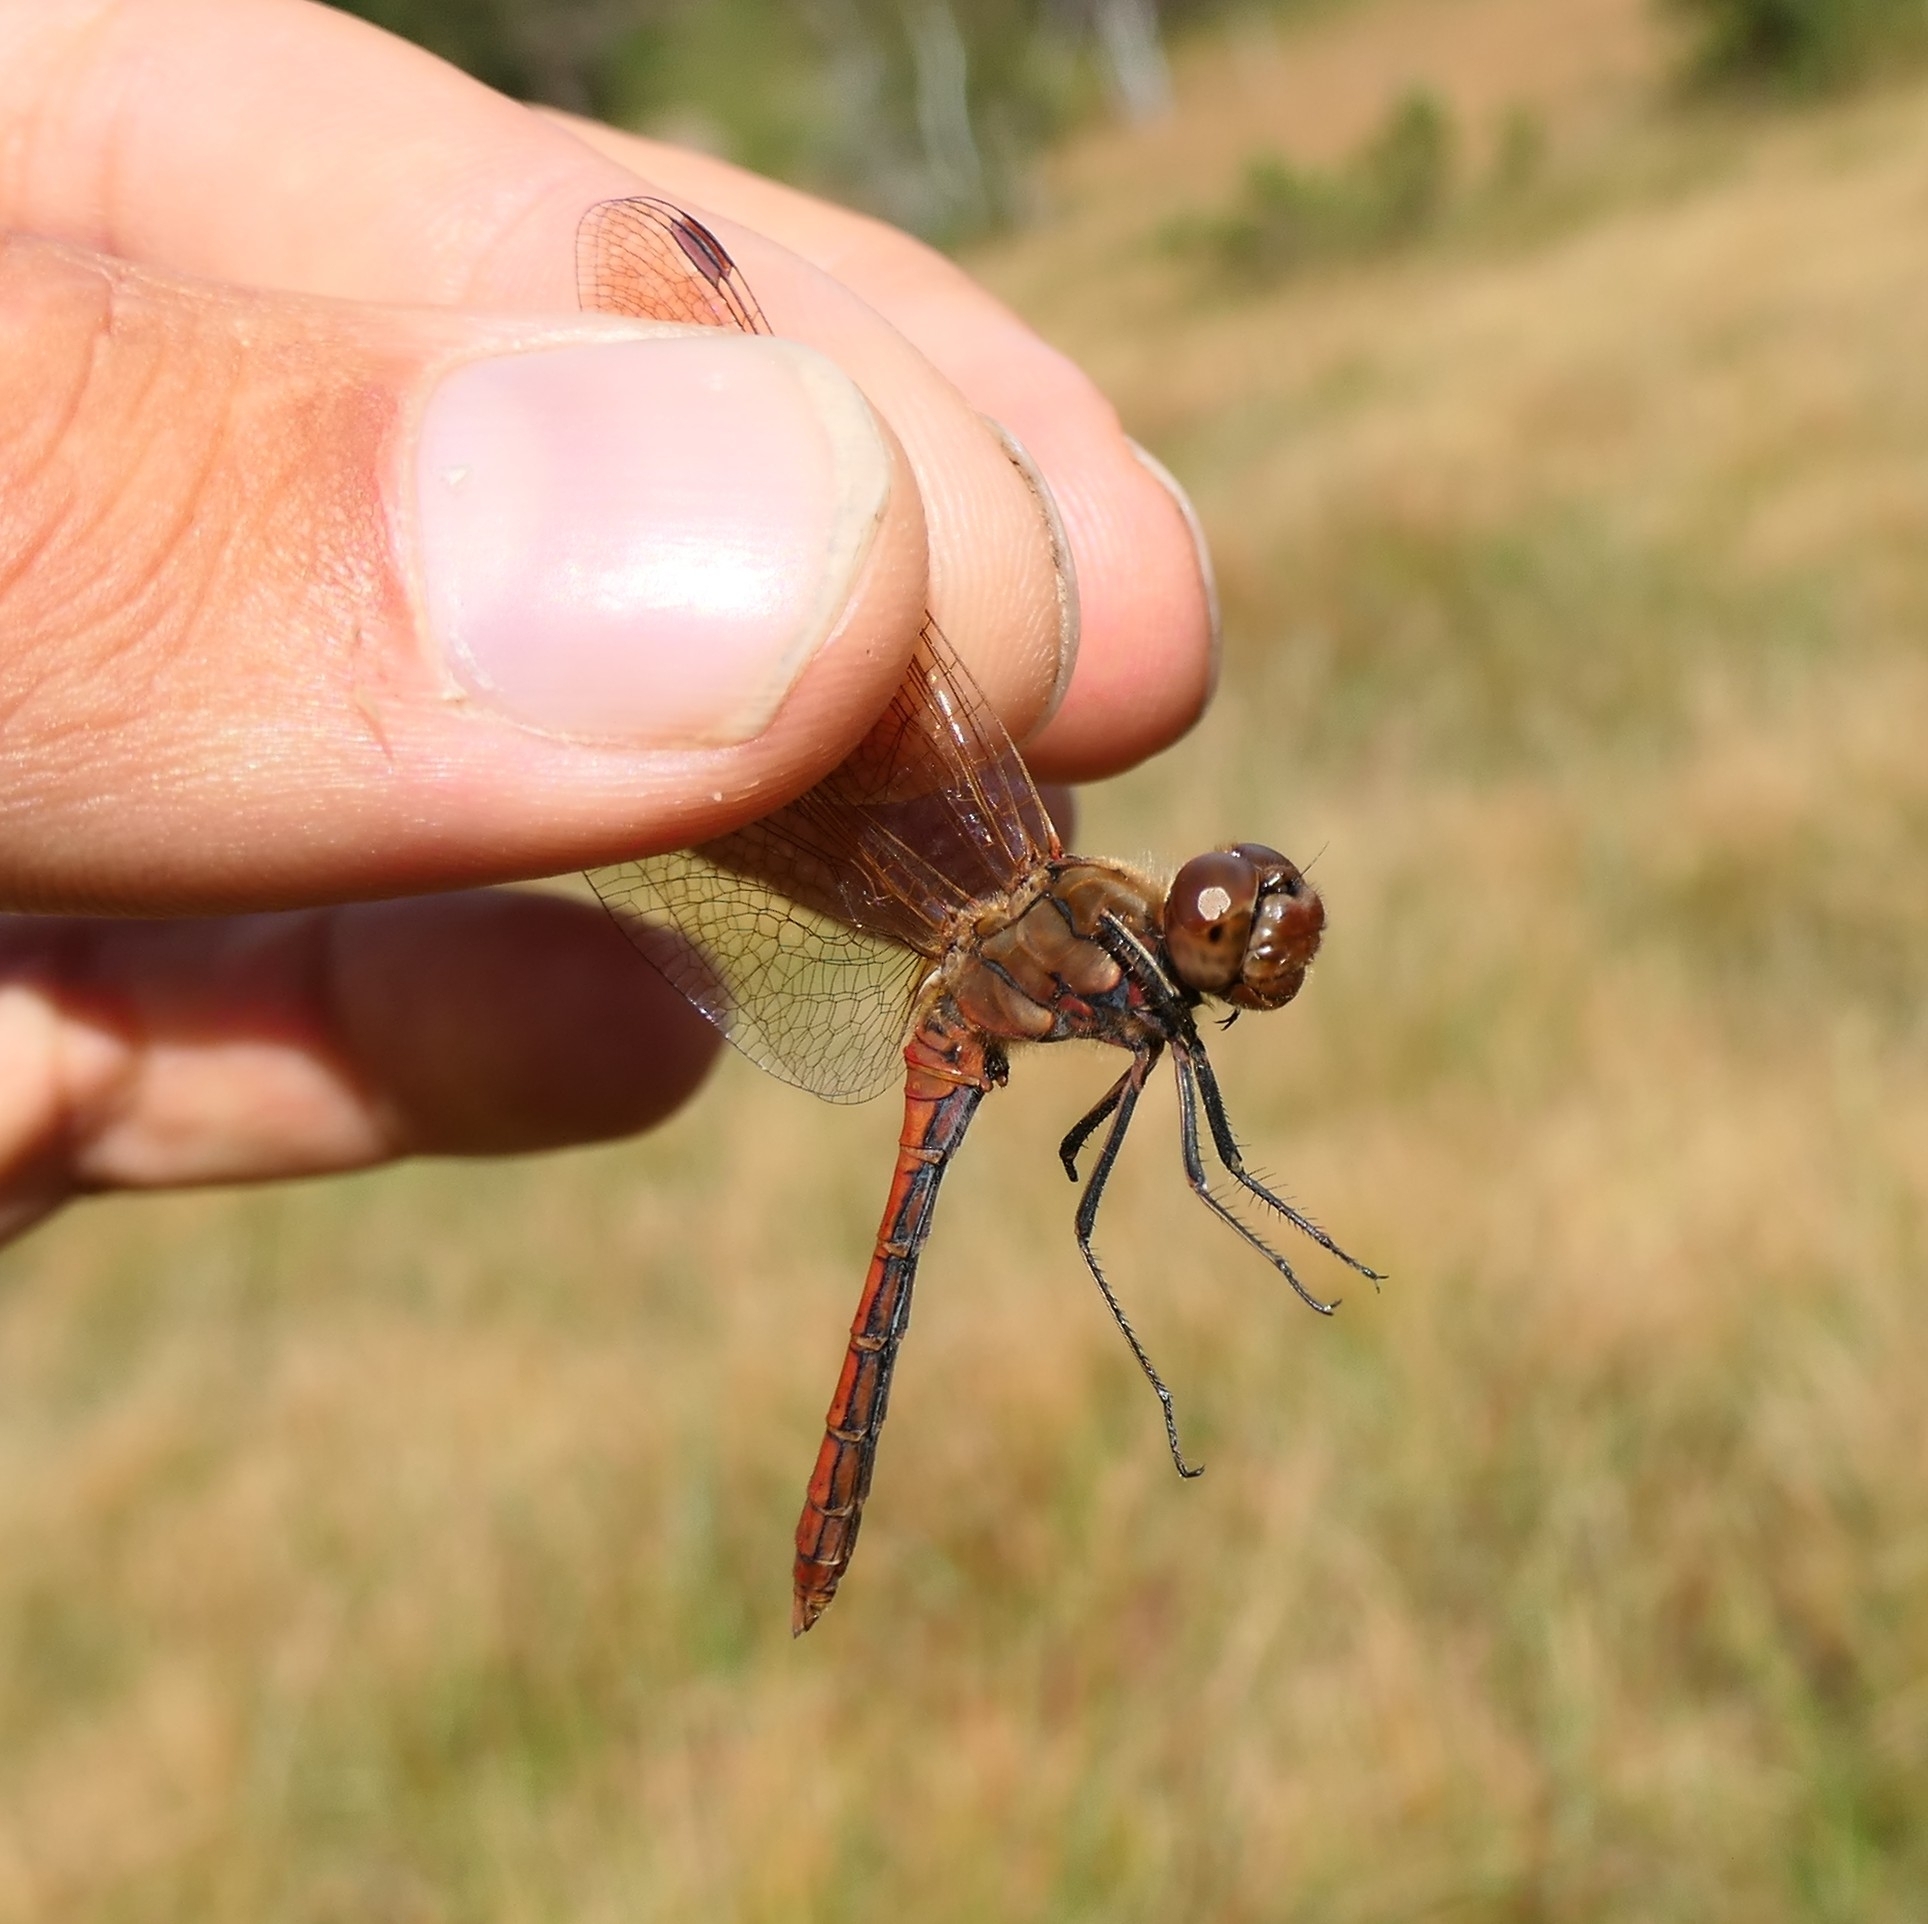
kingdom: Animalia
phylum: Arthropoda
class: Insecta
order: Odonata
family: Libellulidae
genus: Sympetrum
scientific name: Sympetrum vulgatum
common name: Vagrant darter
